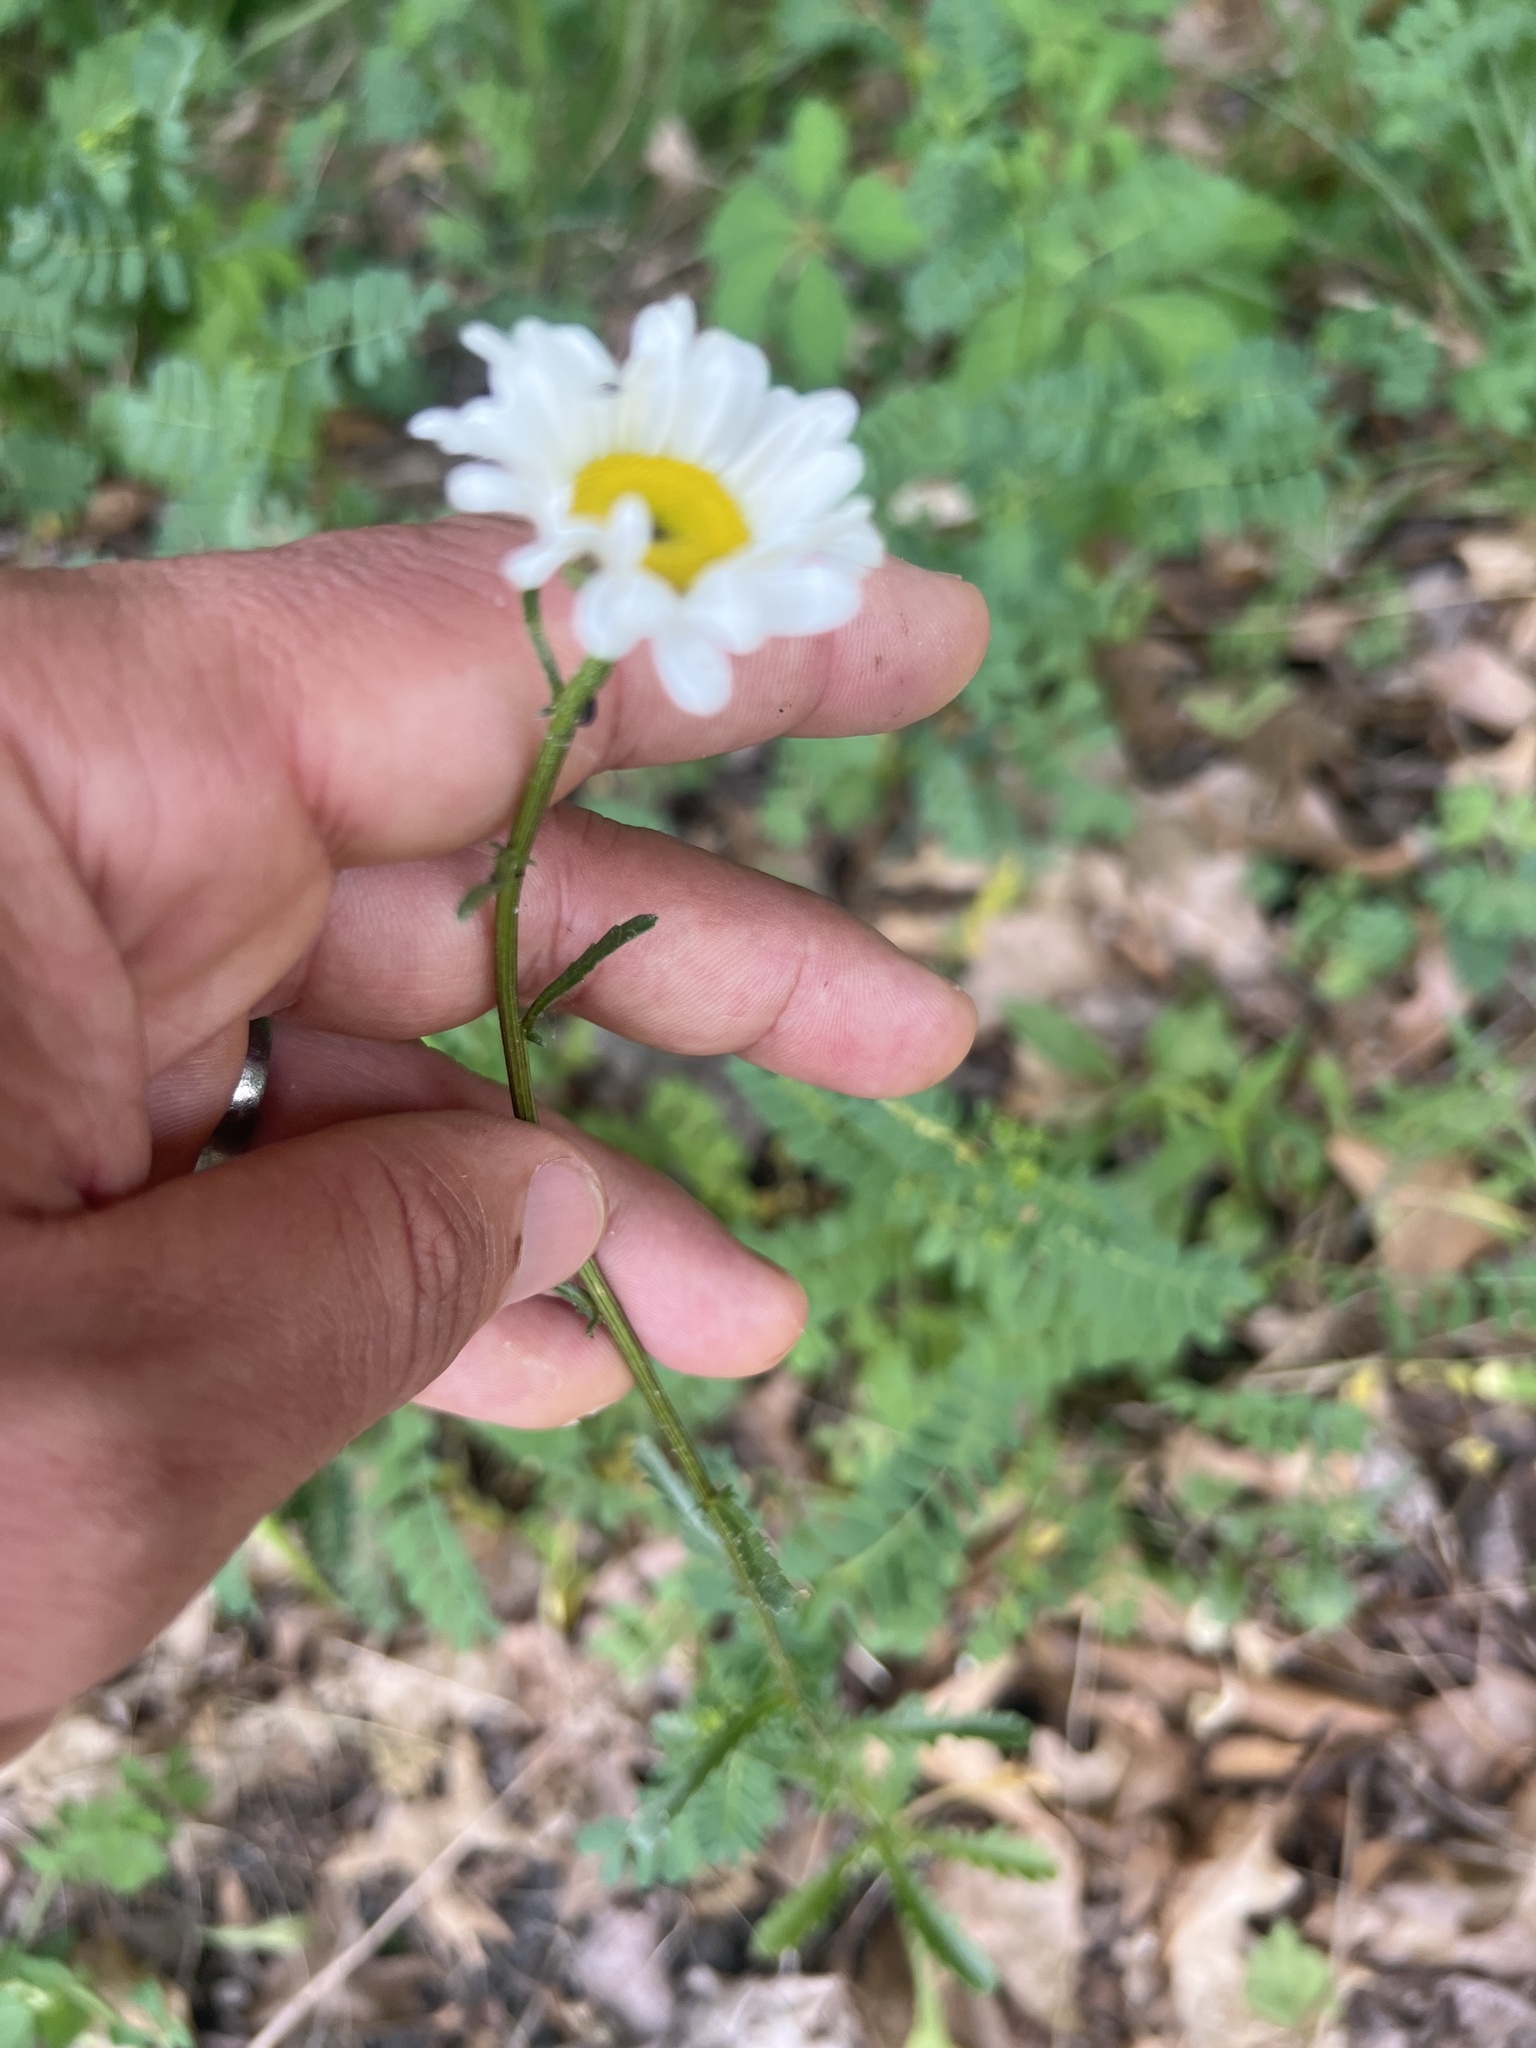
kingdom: Plantae
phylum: Tracheophyta
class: Magnoliopsida
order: Asterales
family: Asteraceae
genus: Leucanthemum
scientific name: Leucanthemum vulgare
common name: Oxeye daisy
